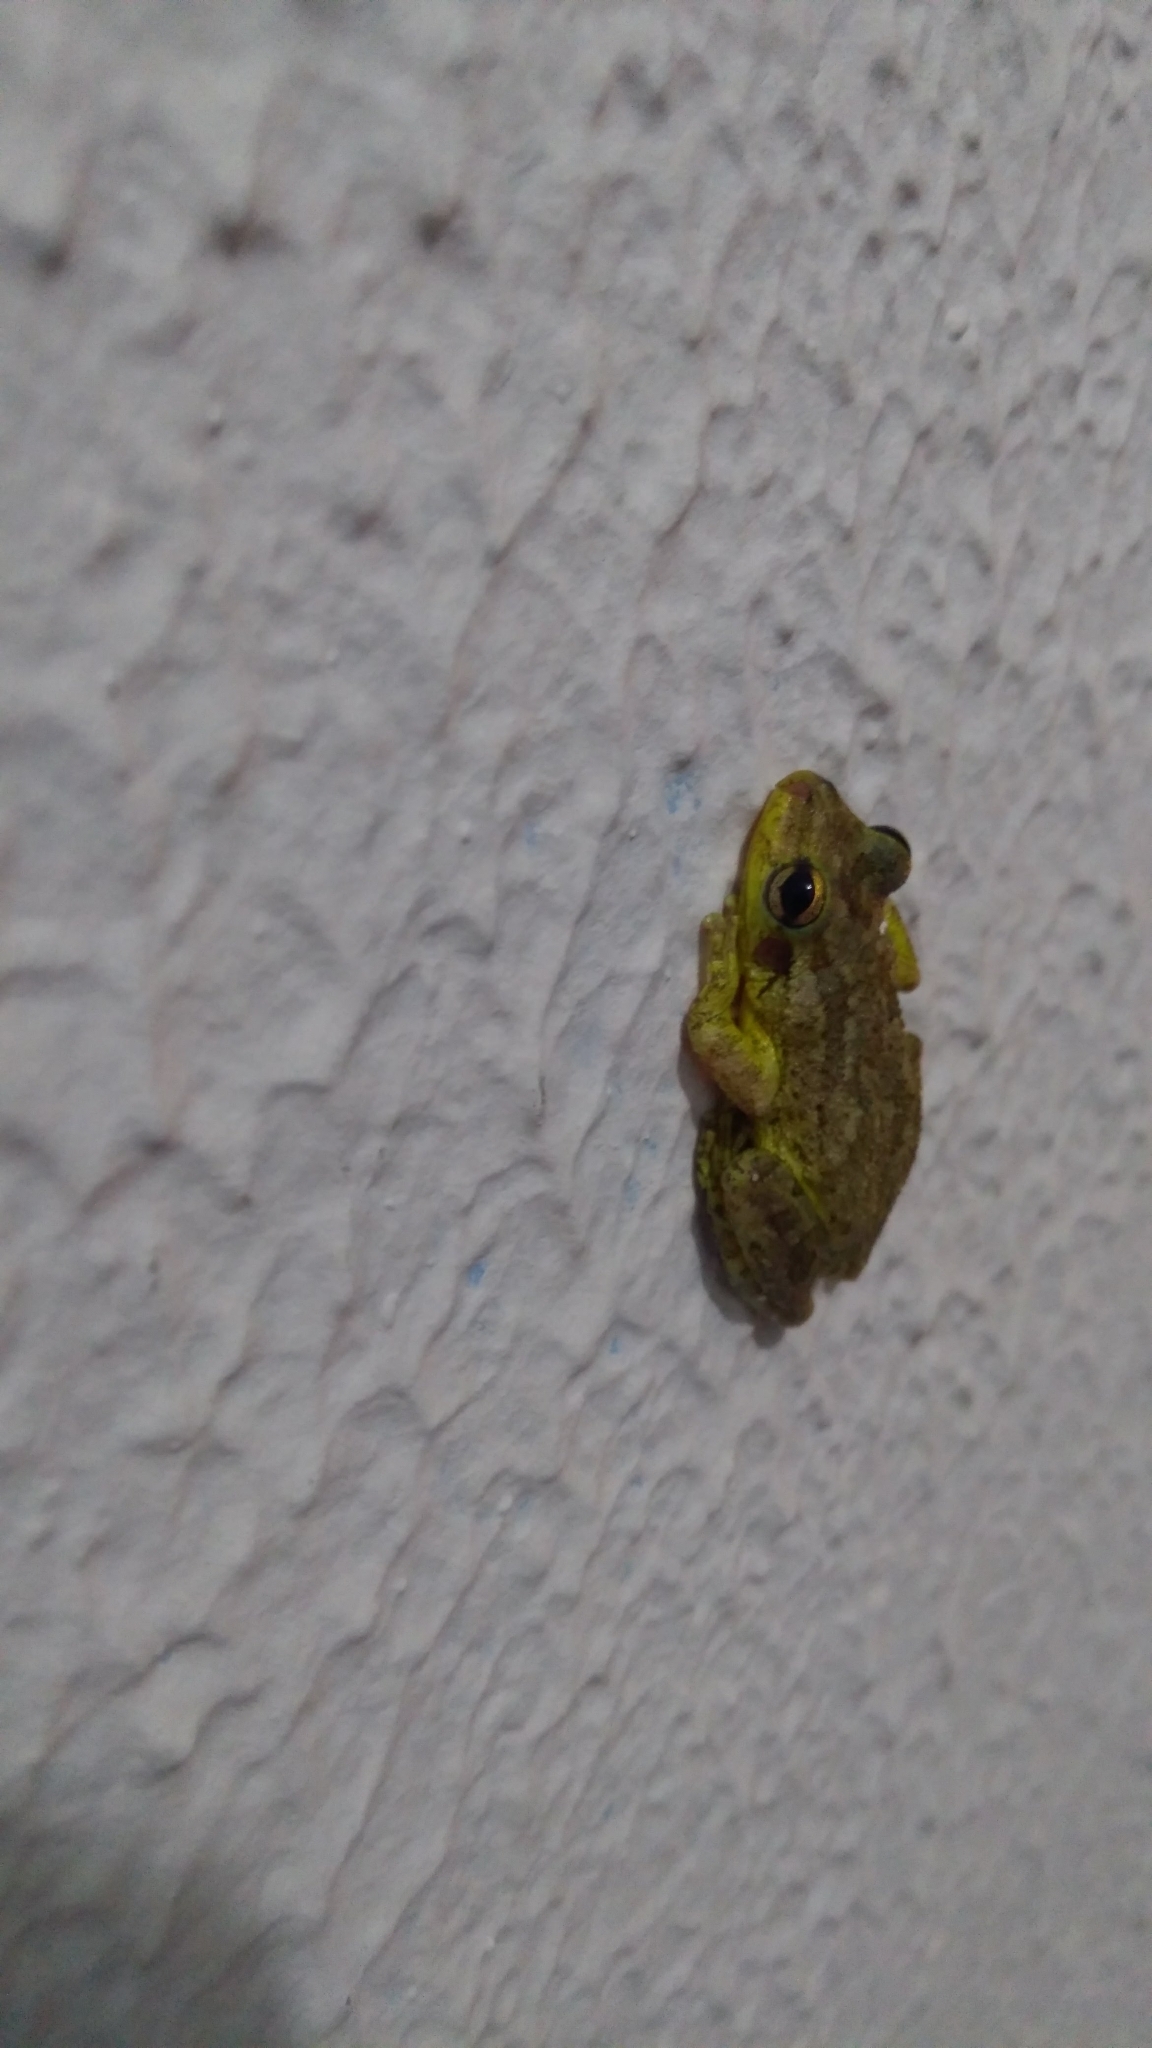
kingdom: Animalia
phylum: Chordata
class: Amphibia
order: Anura
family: Hylidae
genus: Scinax
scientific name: Scinax x-signatus
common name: Venezuela snouted treefrog
